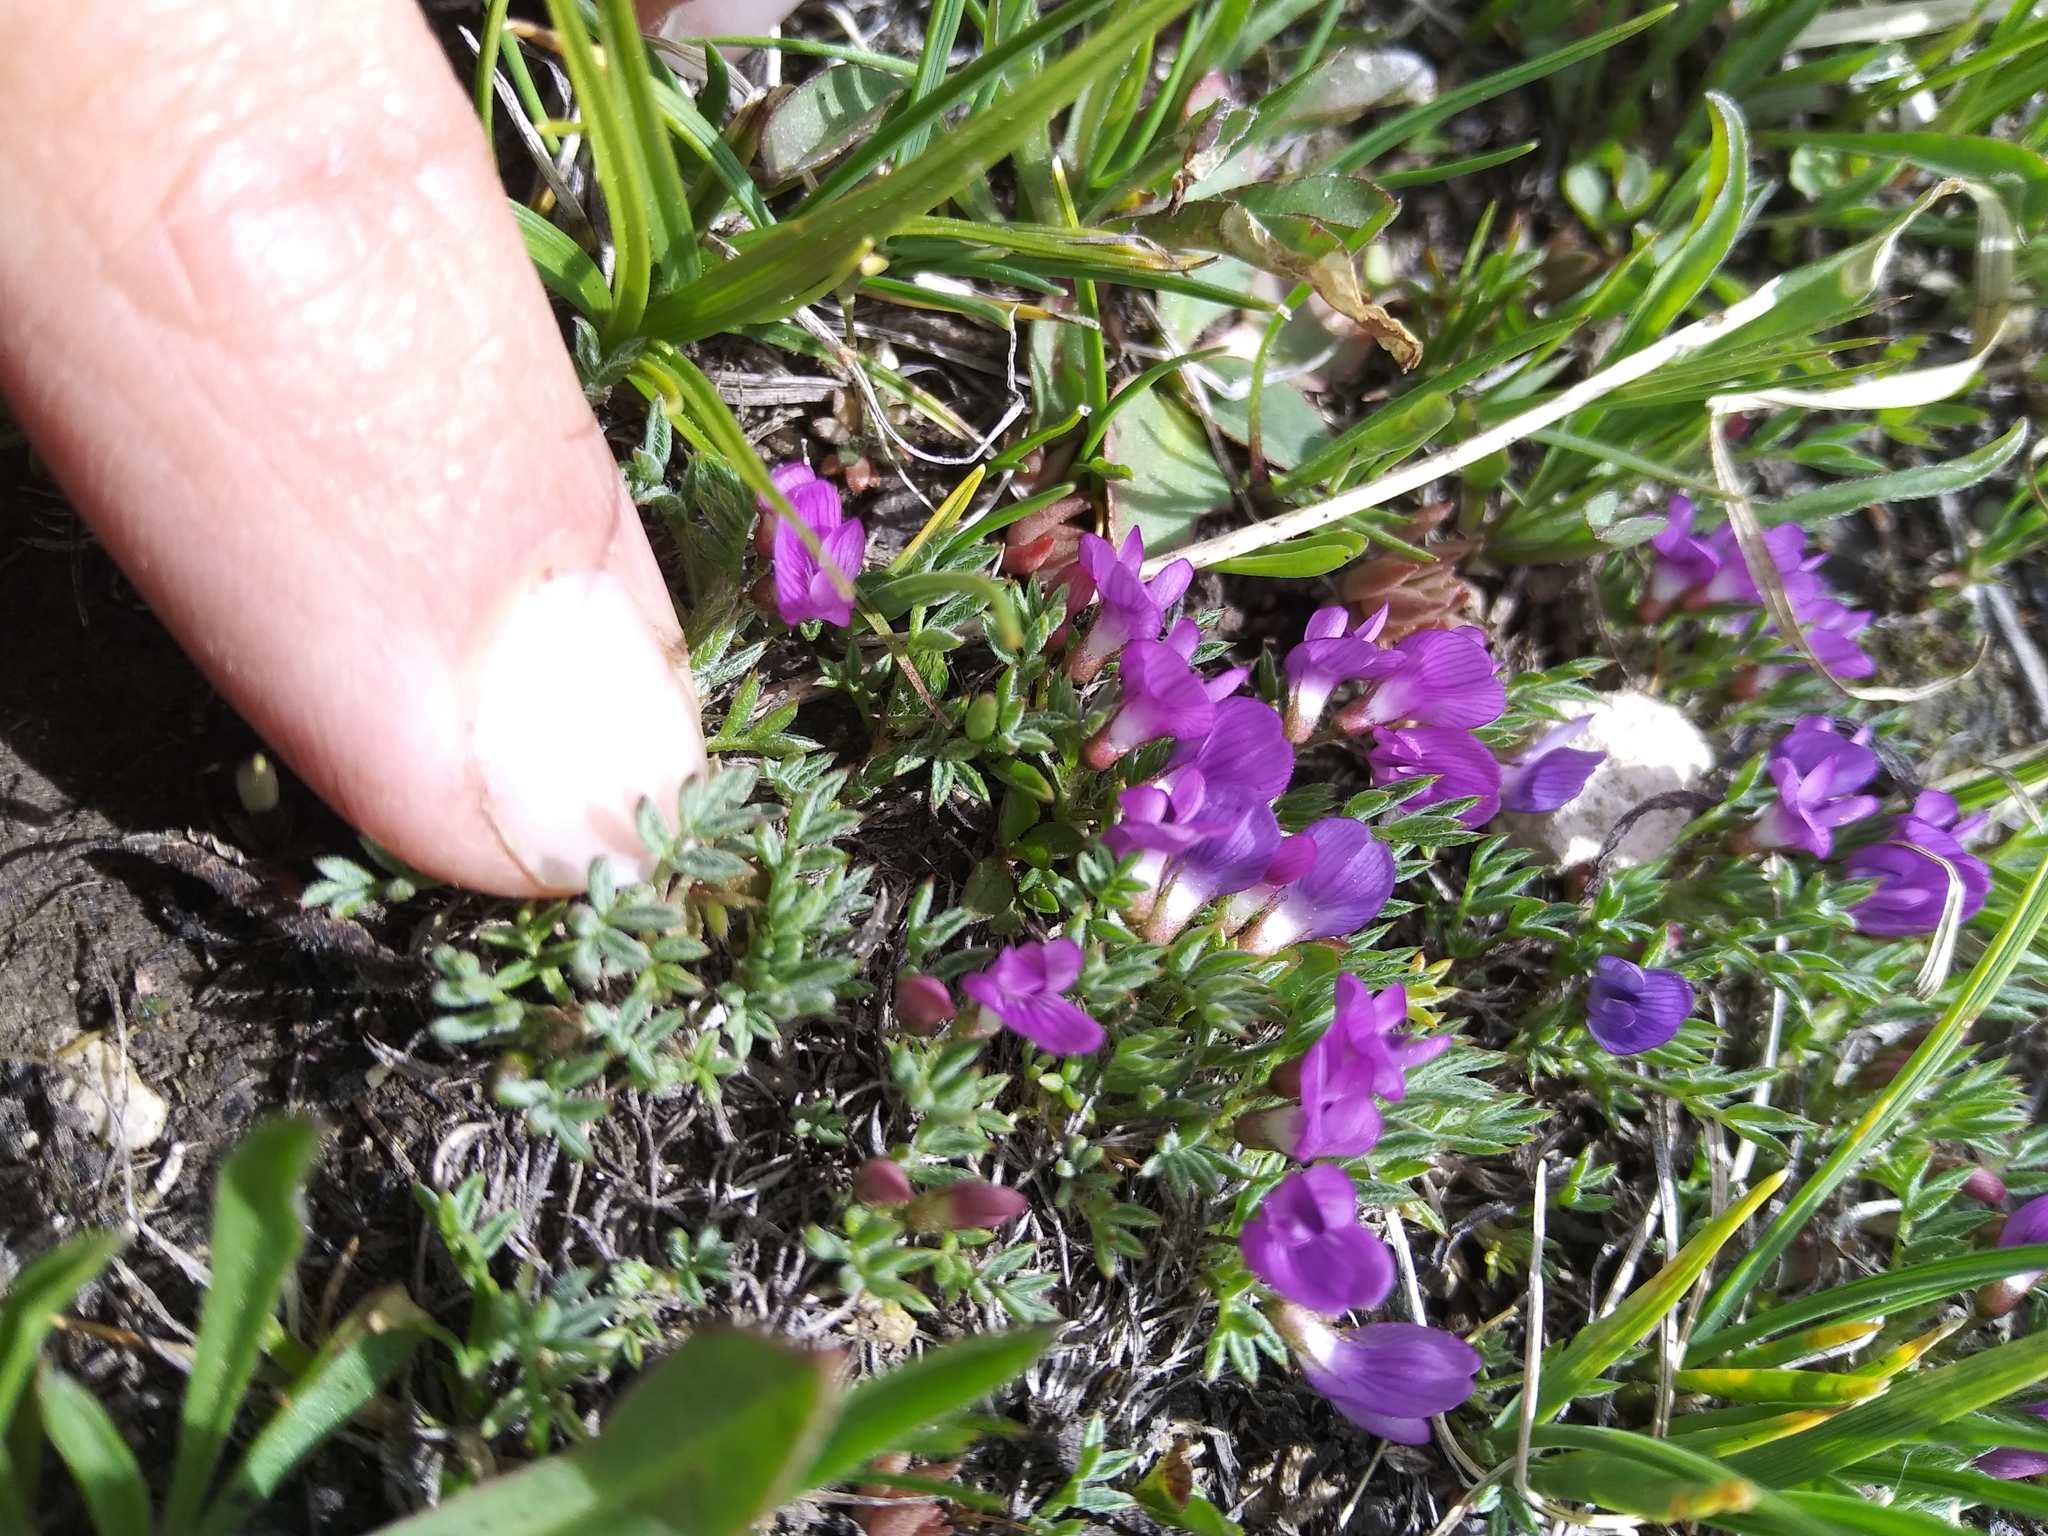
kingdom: Plantae
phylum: Tracheophyta
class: Magnoliopsida
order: Fabales
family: Fabaceae
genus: Astragalus
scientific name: Astragalus kentrophyta
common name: Prickly milk-vetch
